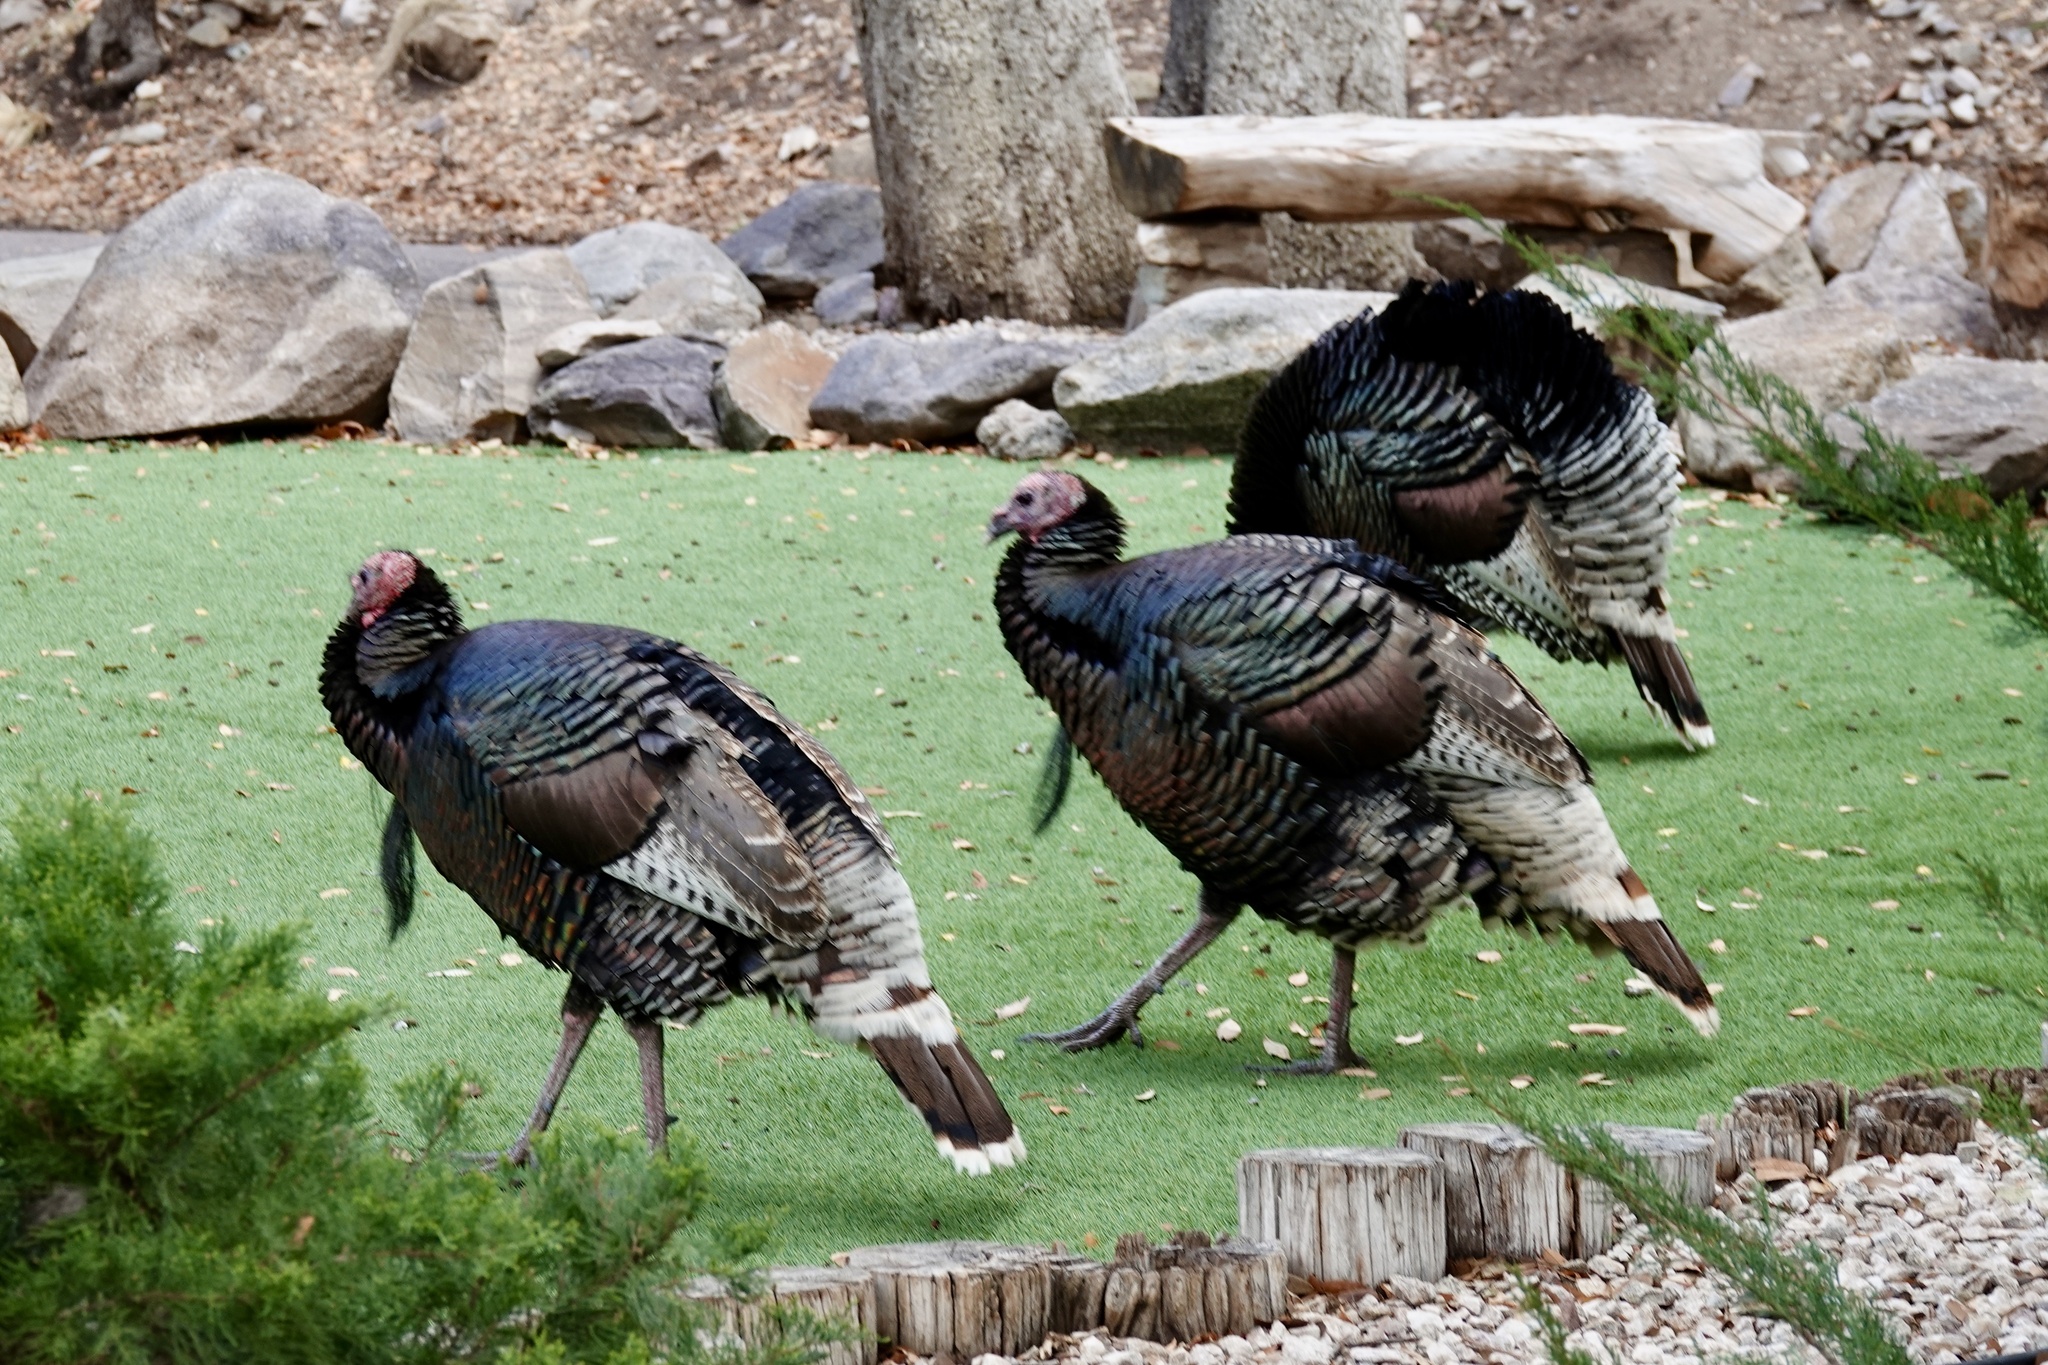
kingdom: Animalia
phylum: Chordata
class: Aves
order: Galliformes
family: Phasianidae
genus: Meleagris
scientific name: Meleagris gallopavo
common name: Wild turkey
